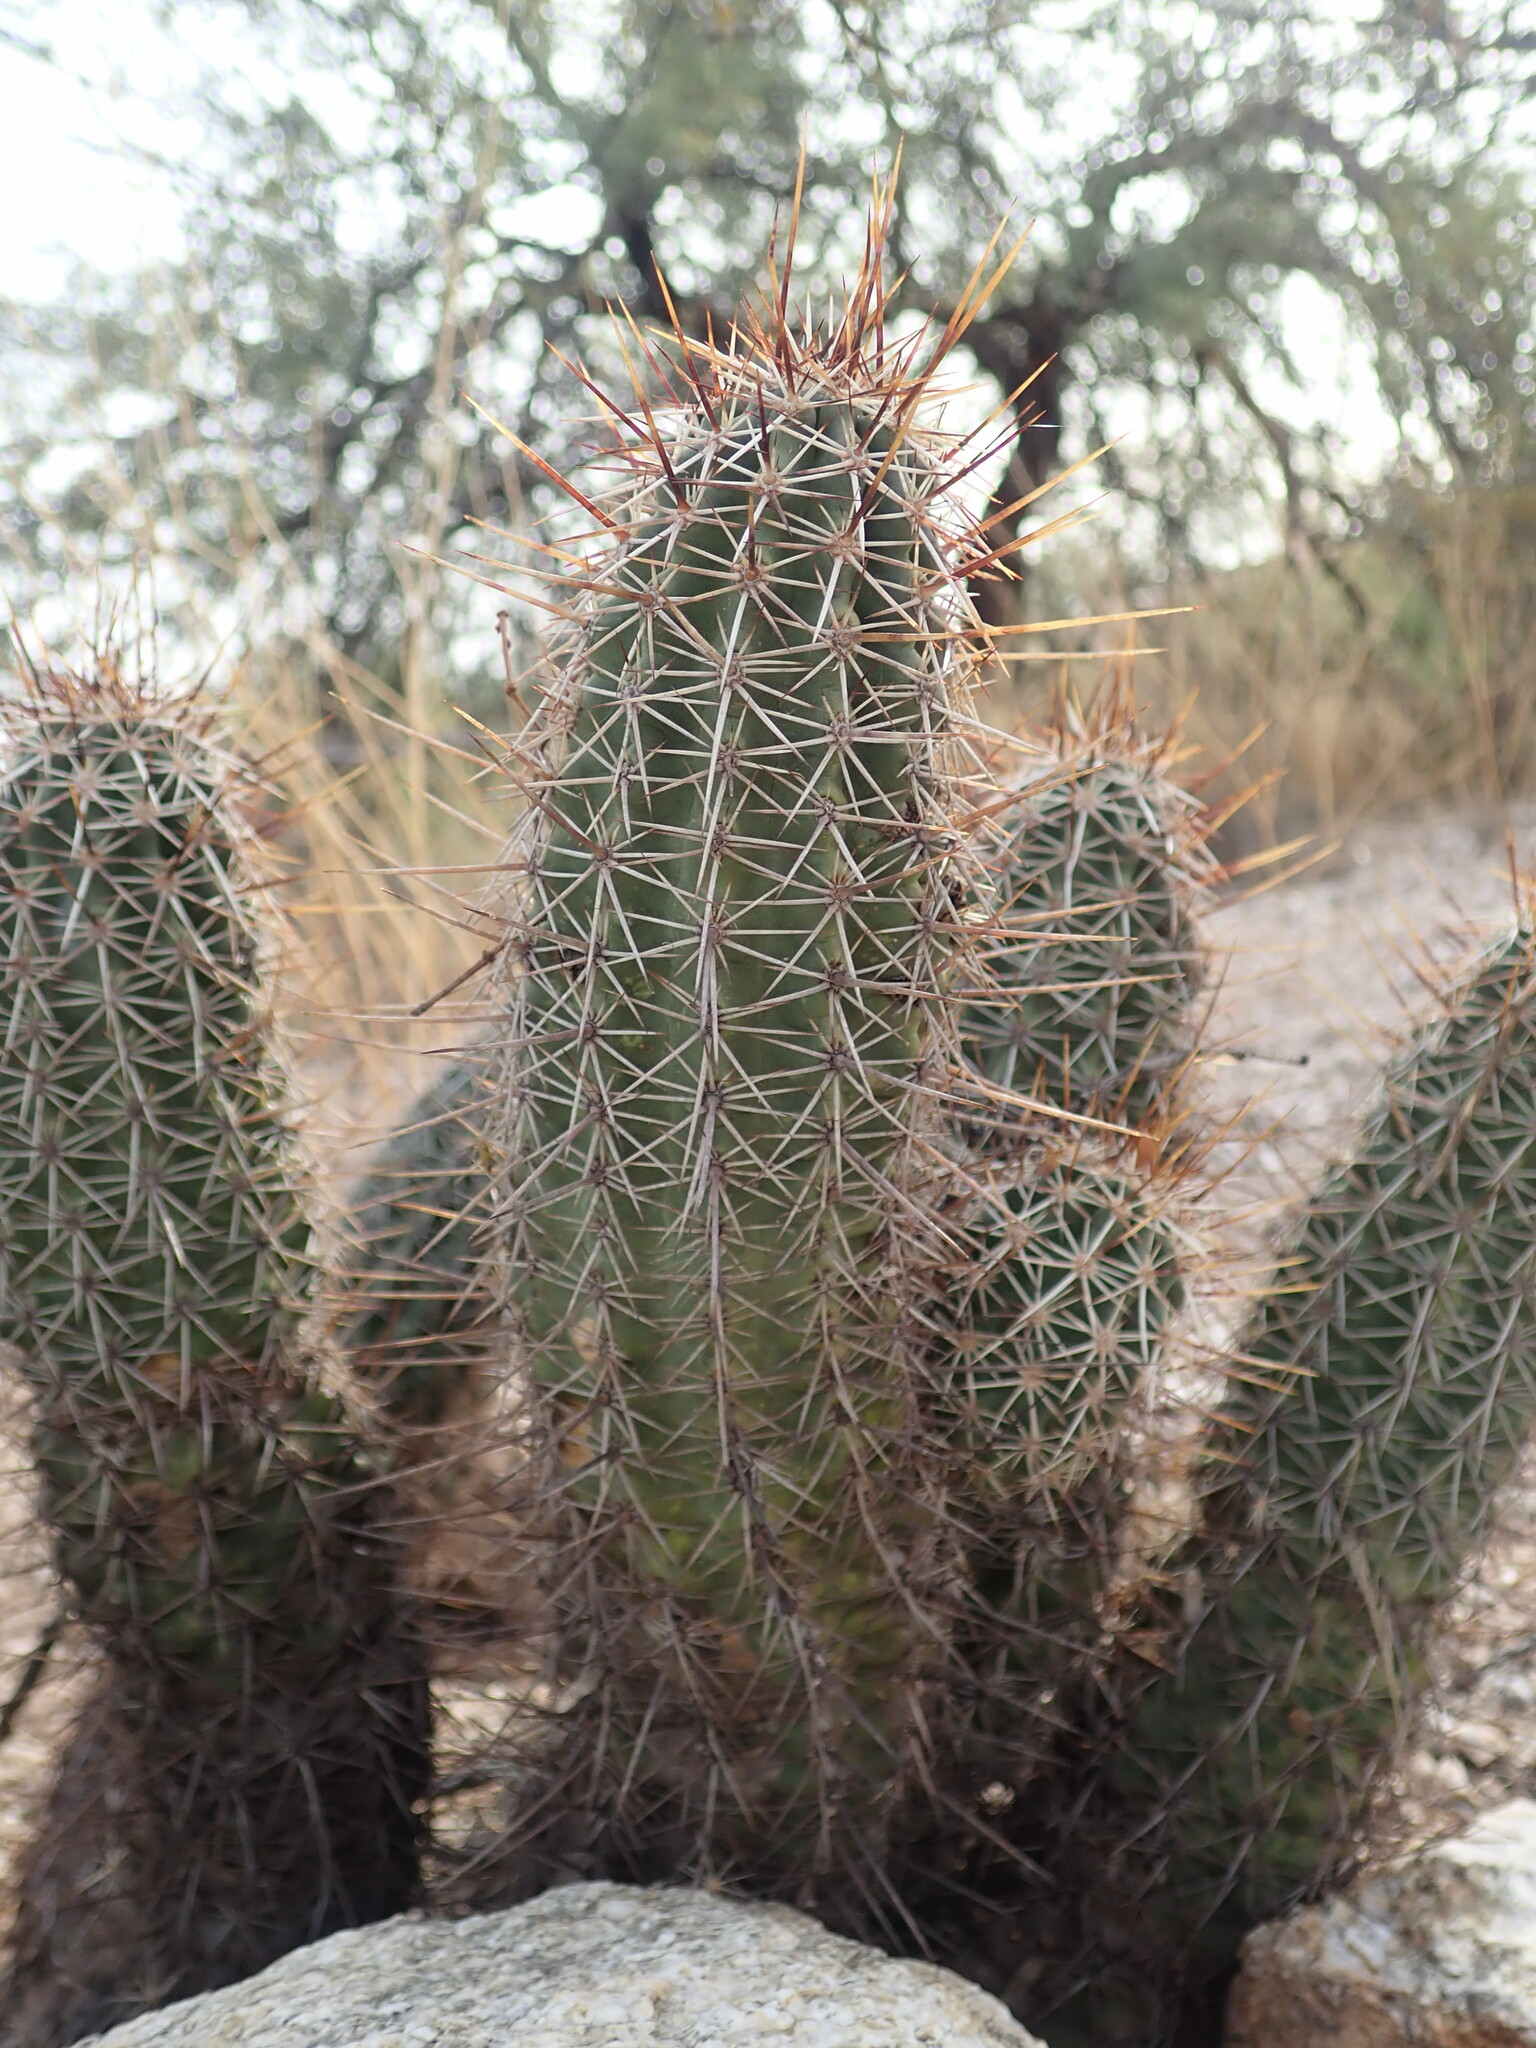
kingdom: Plantae
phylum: Tracheophyta
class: Magnoliopsida
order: Caryophyllales
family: Cactaceae
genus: Echinocereus
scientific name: Echinocereus fasciculatus
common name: Bundle hedgehog
